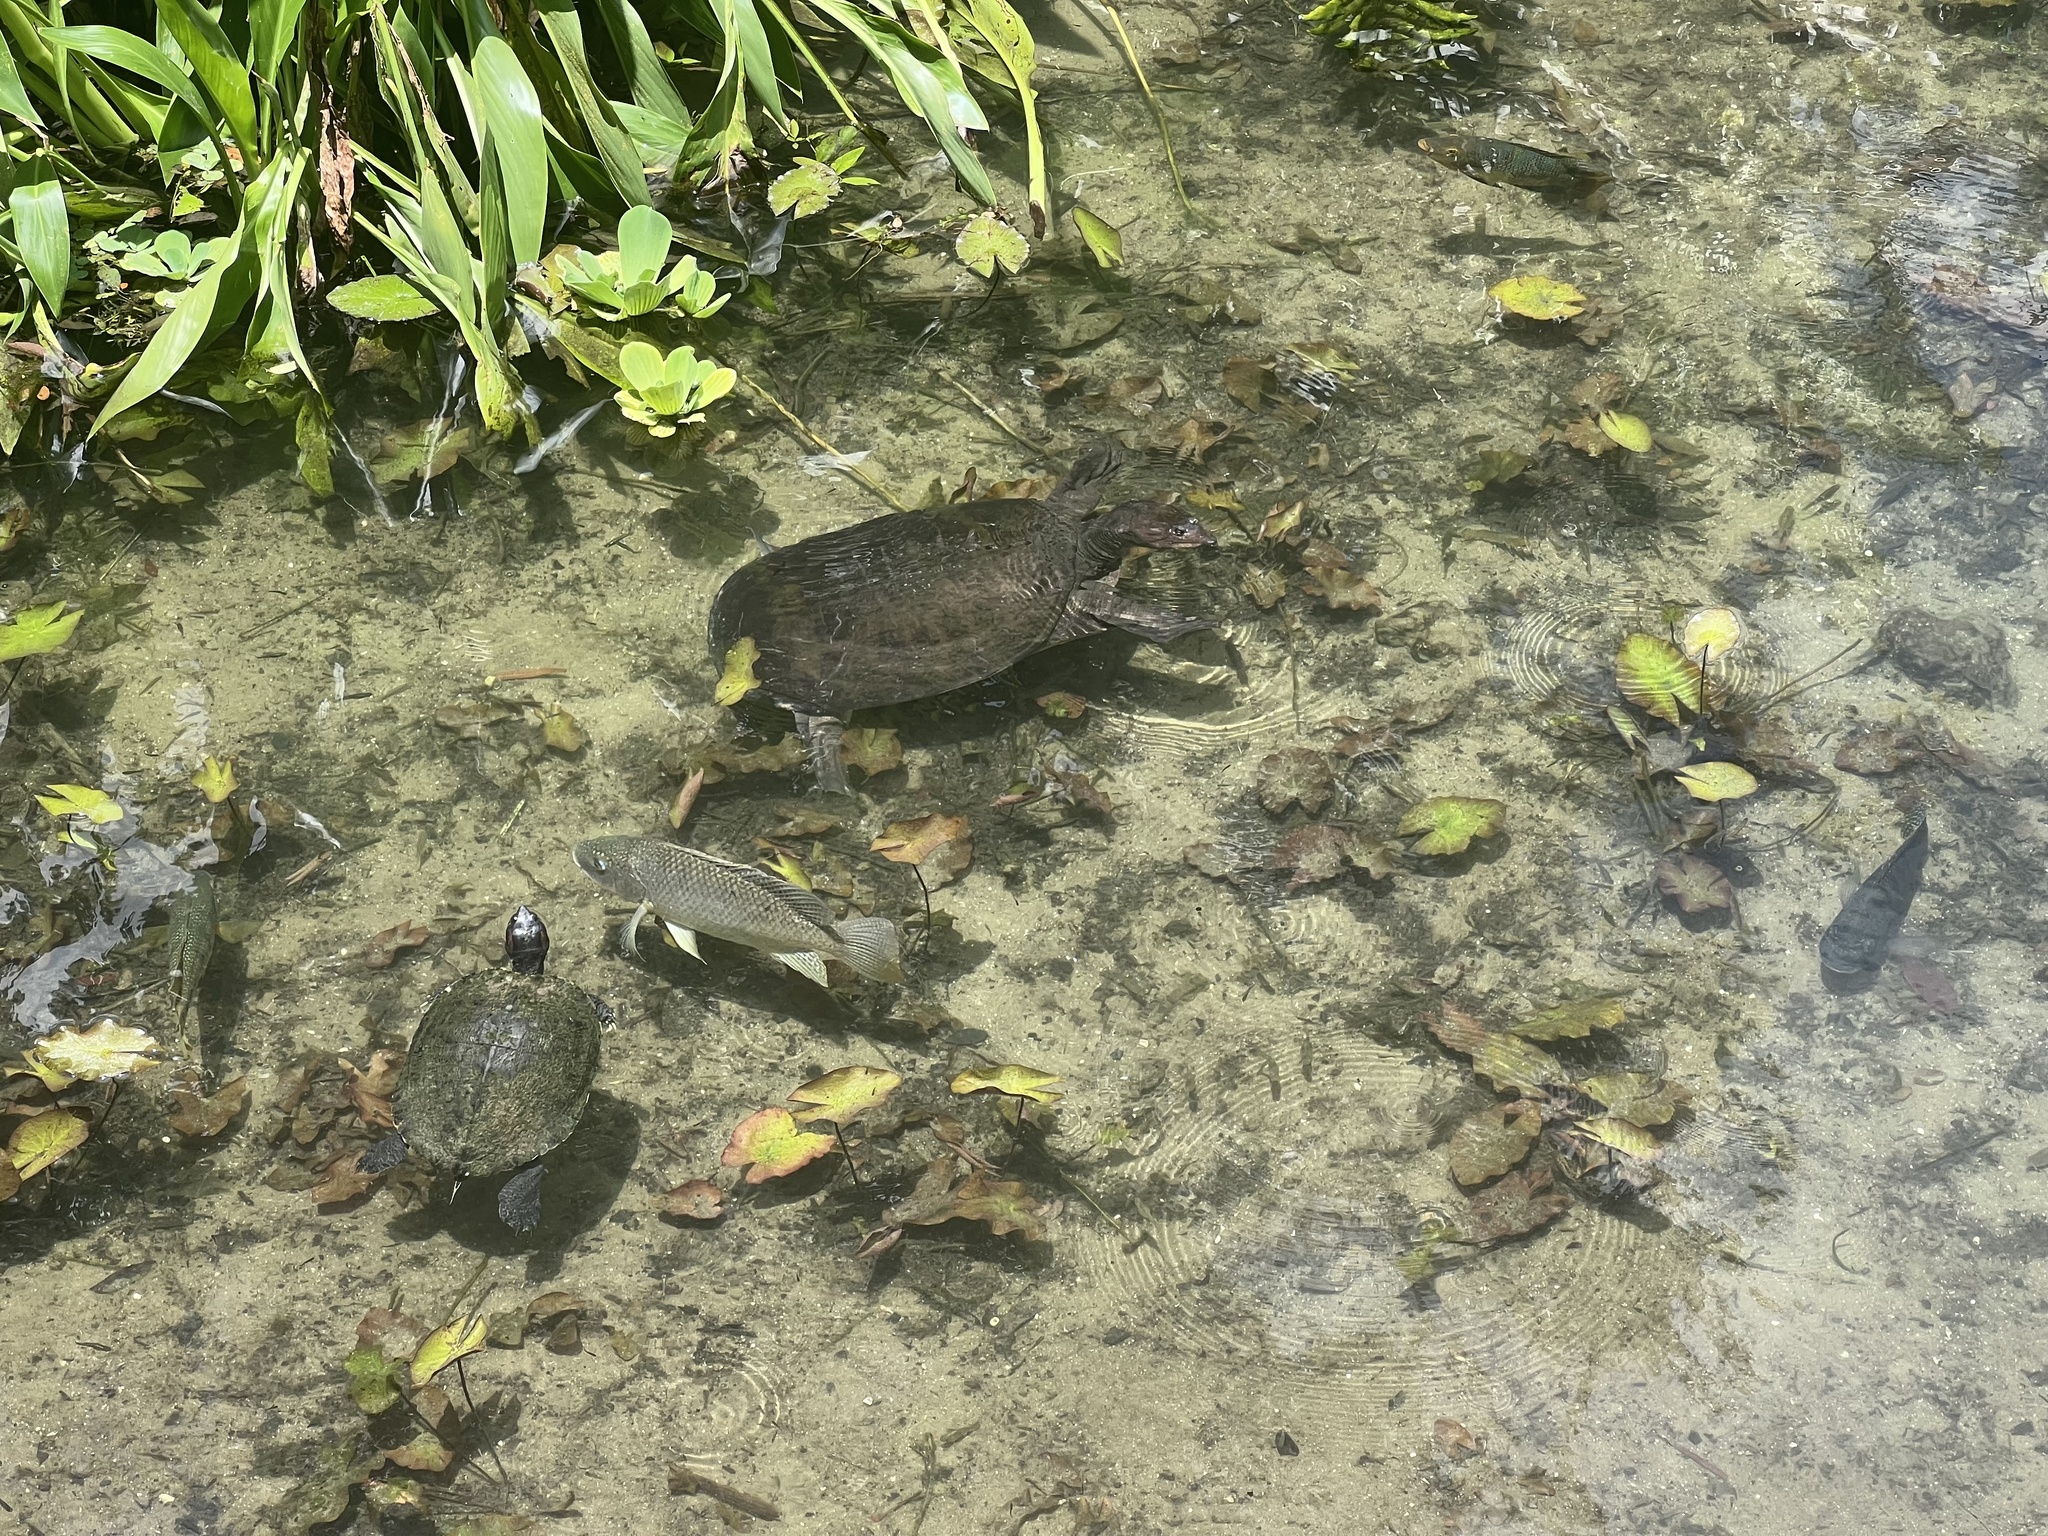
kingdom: Animalia
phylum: Chordata
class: Testudines
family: Trionychidae
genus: Apalone
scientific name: Apalone ferox
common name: Florida softshell turtle
